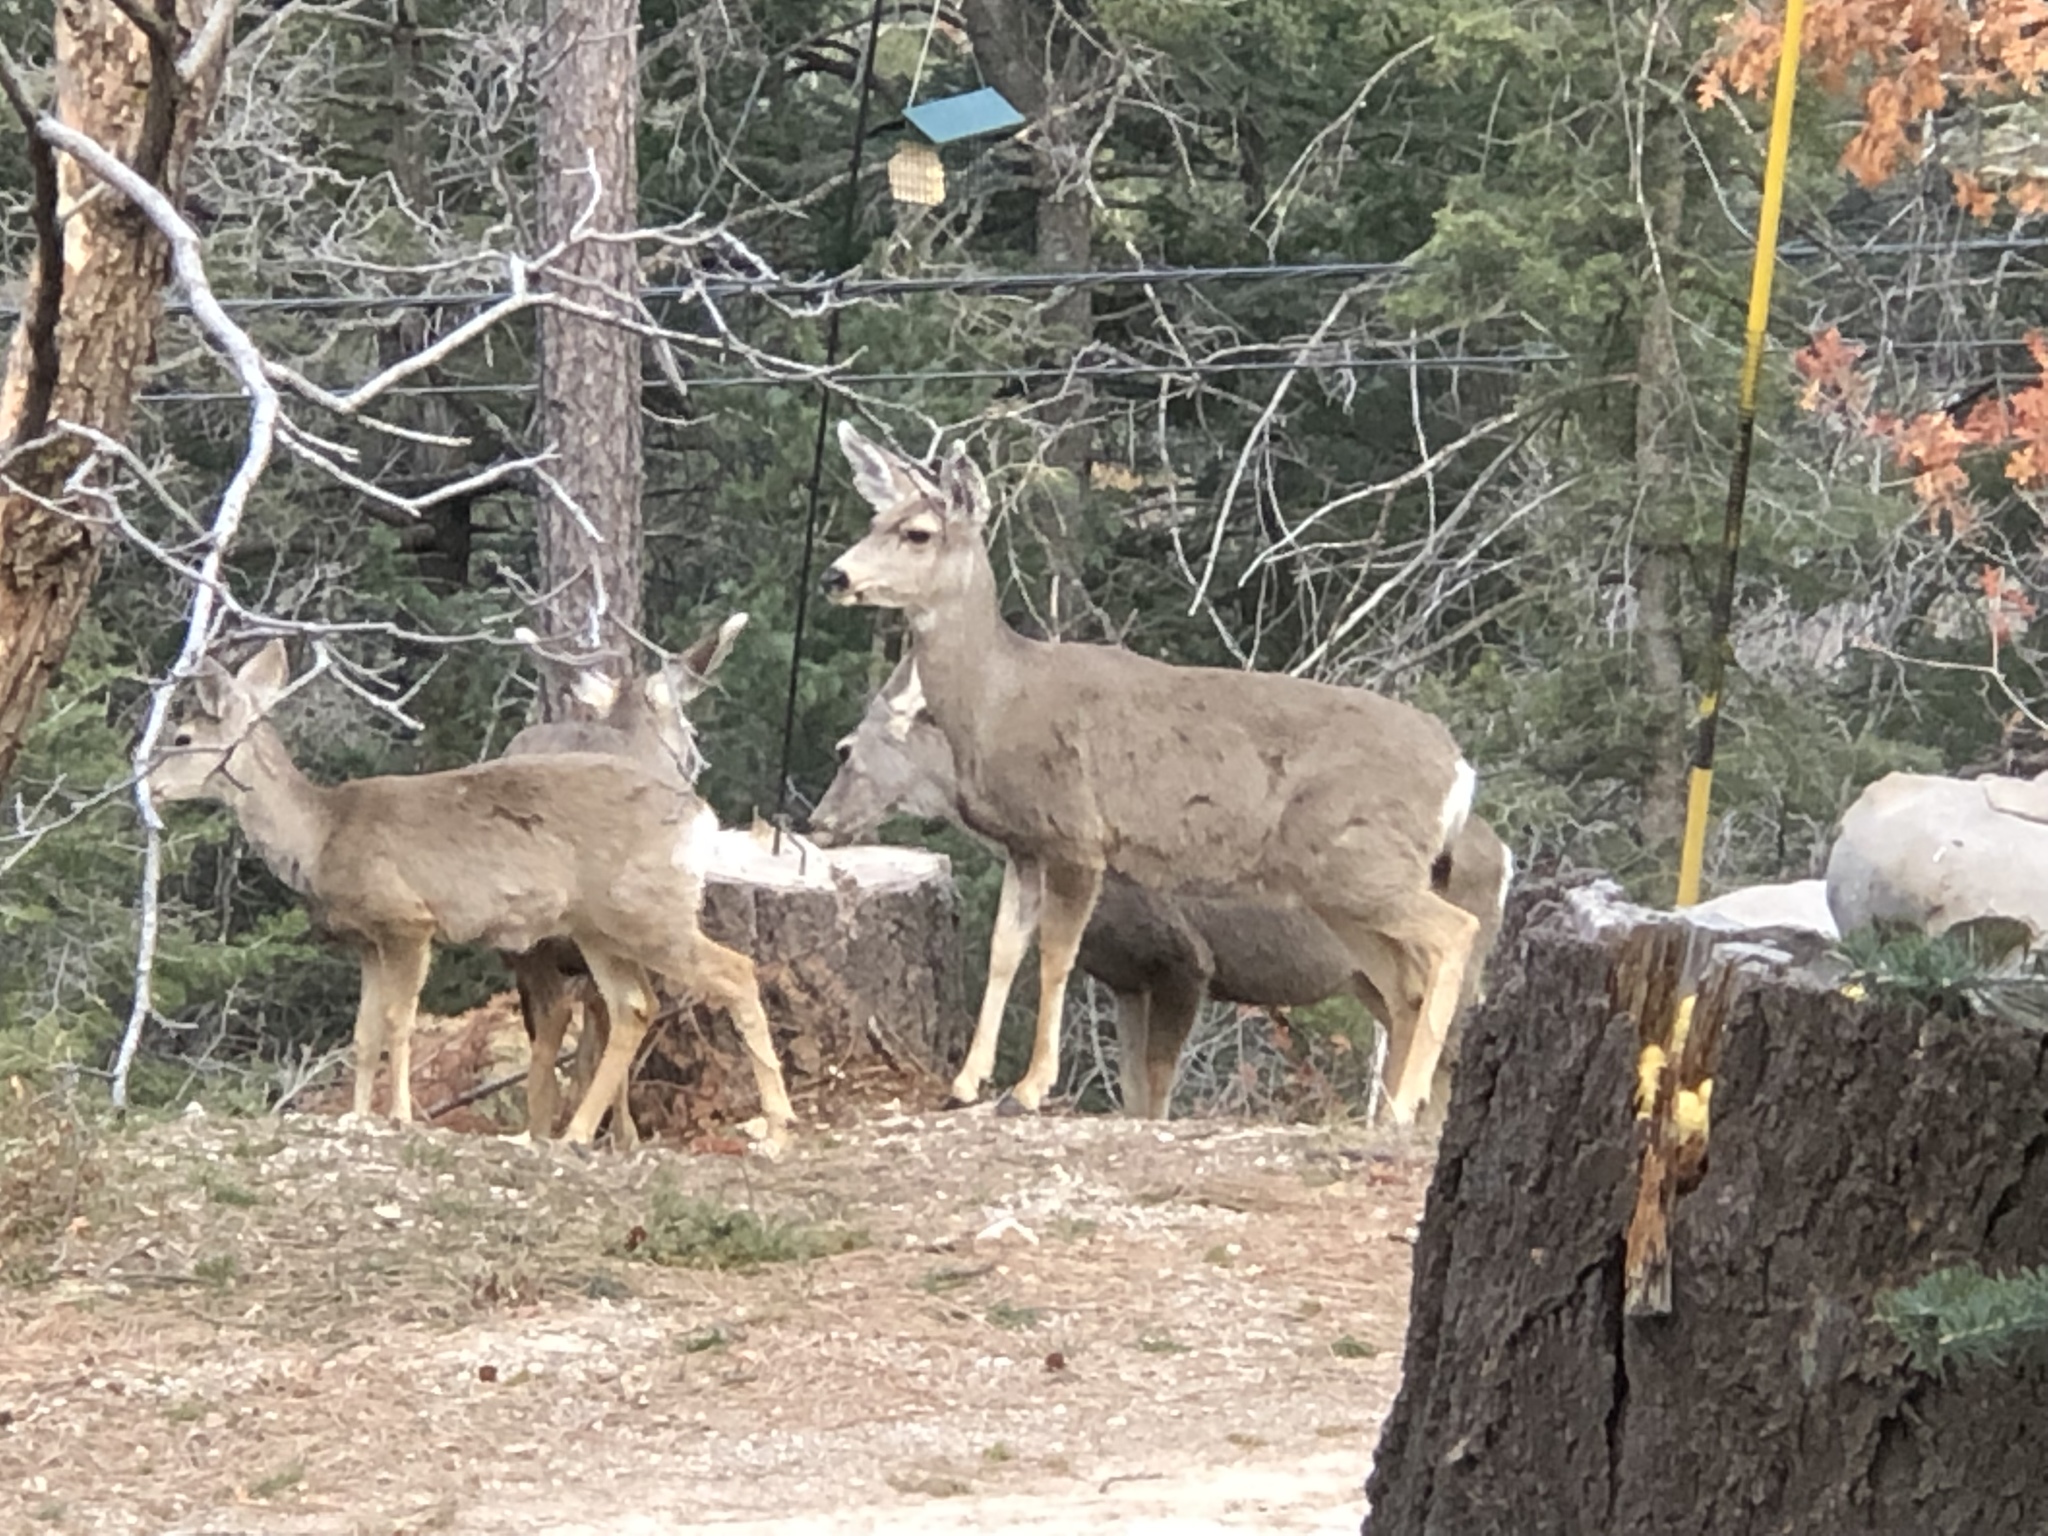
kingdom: Animalia
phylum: Chordata
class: Mammalia
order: Artiodactyla
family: Cervidae
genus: Odocoileus
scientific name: Odocoileus hemionus
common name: Mule deer
